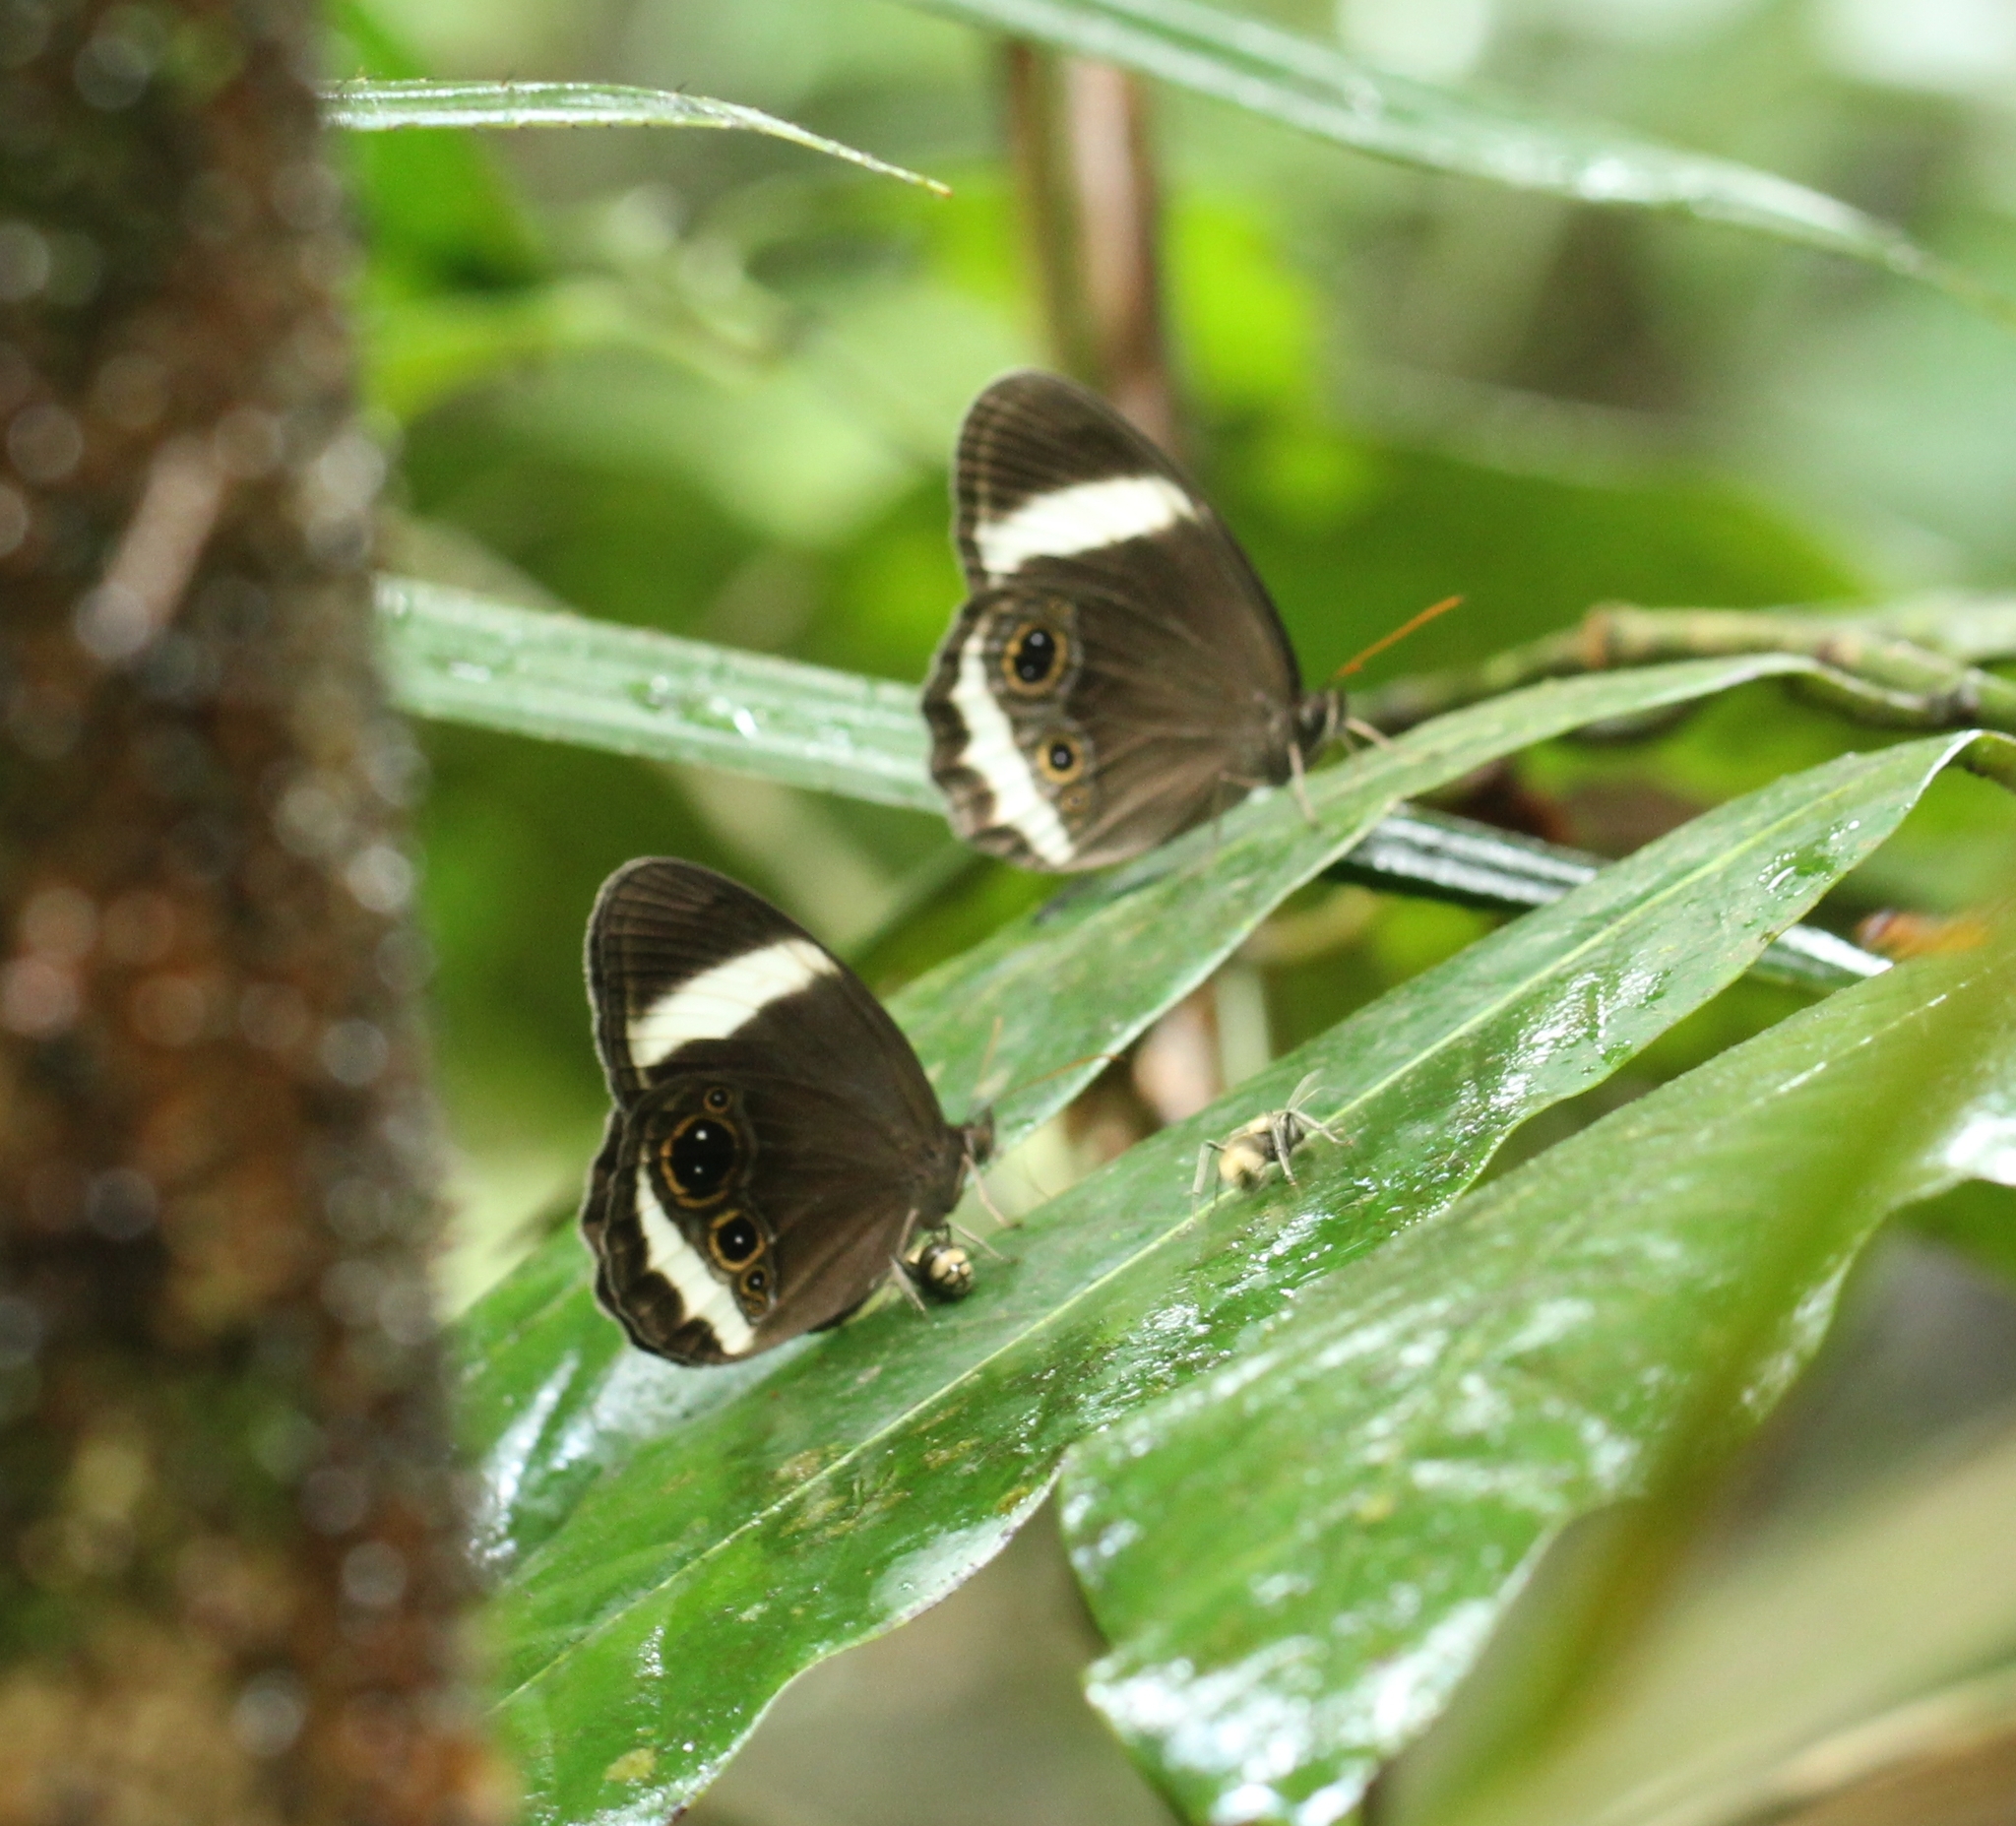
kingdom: Animalia
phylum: Arthropoda
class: Insecta
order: Lepidoptera
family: Nymphalidae
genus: Zipaetis
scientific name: Zipaetis saitis
